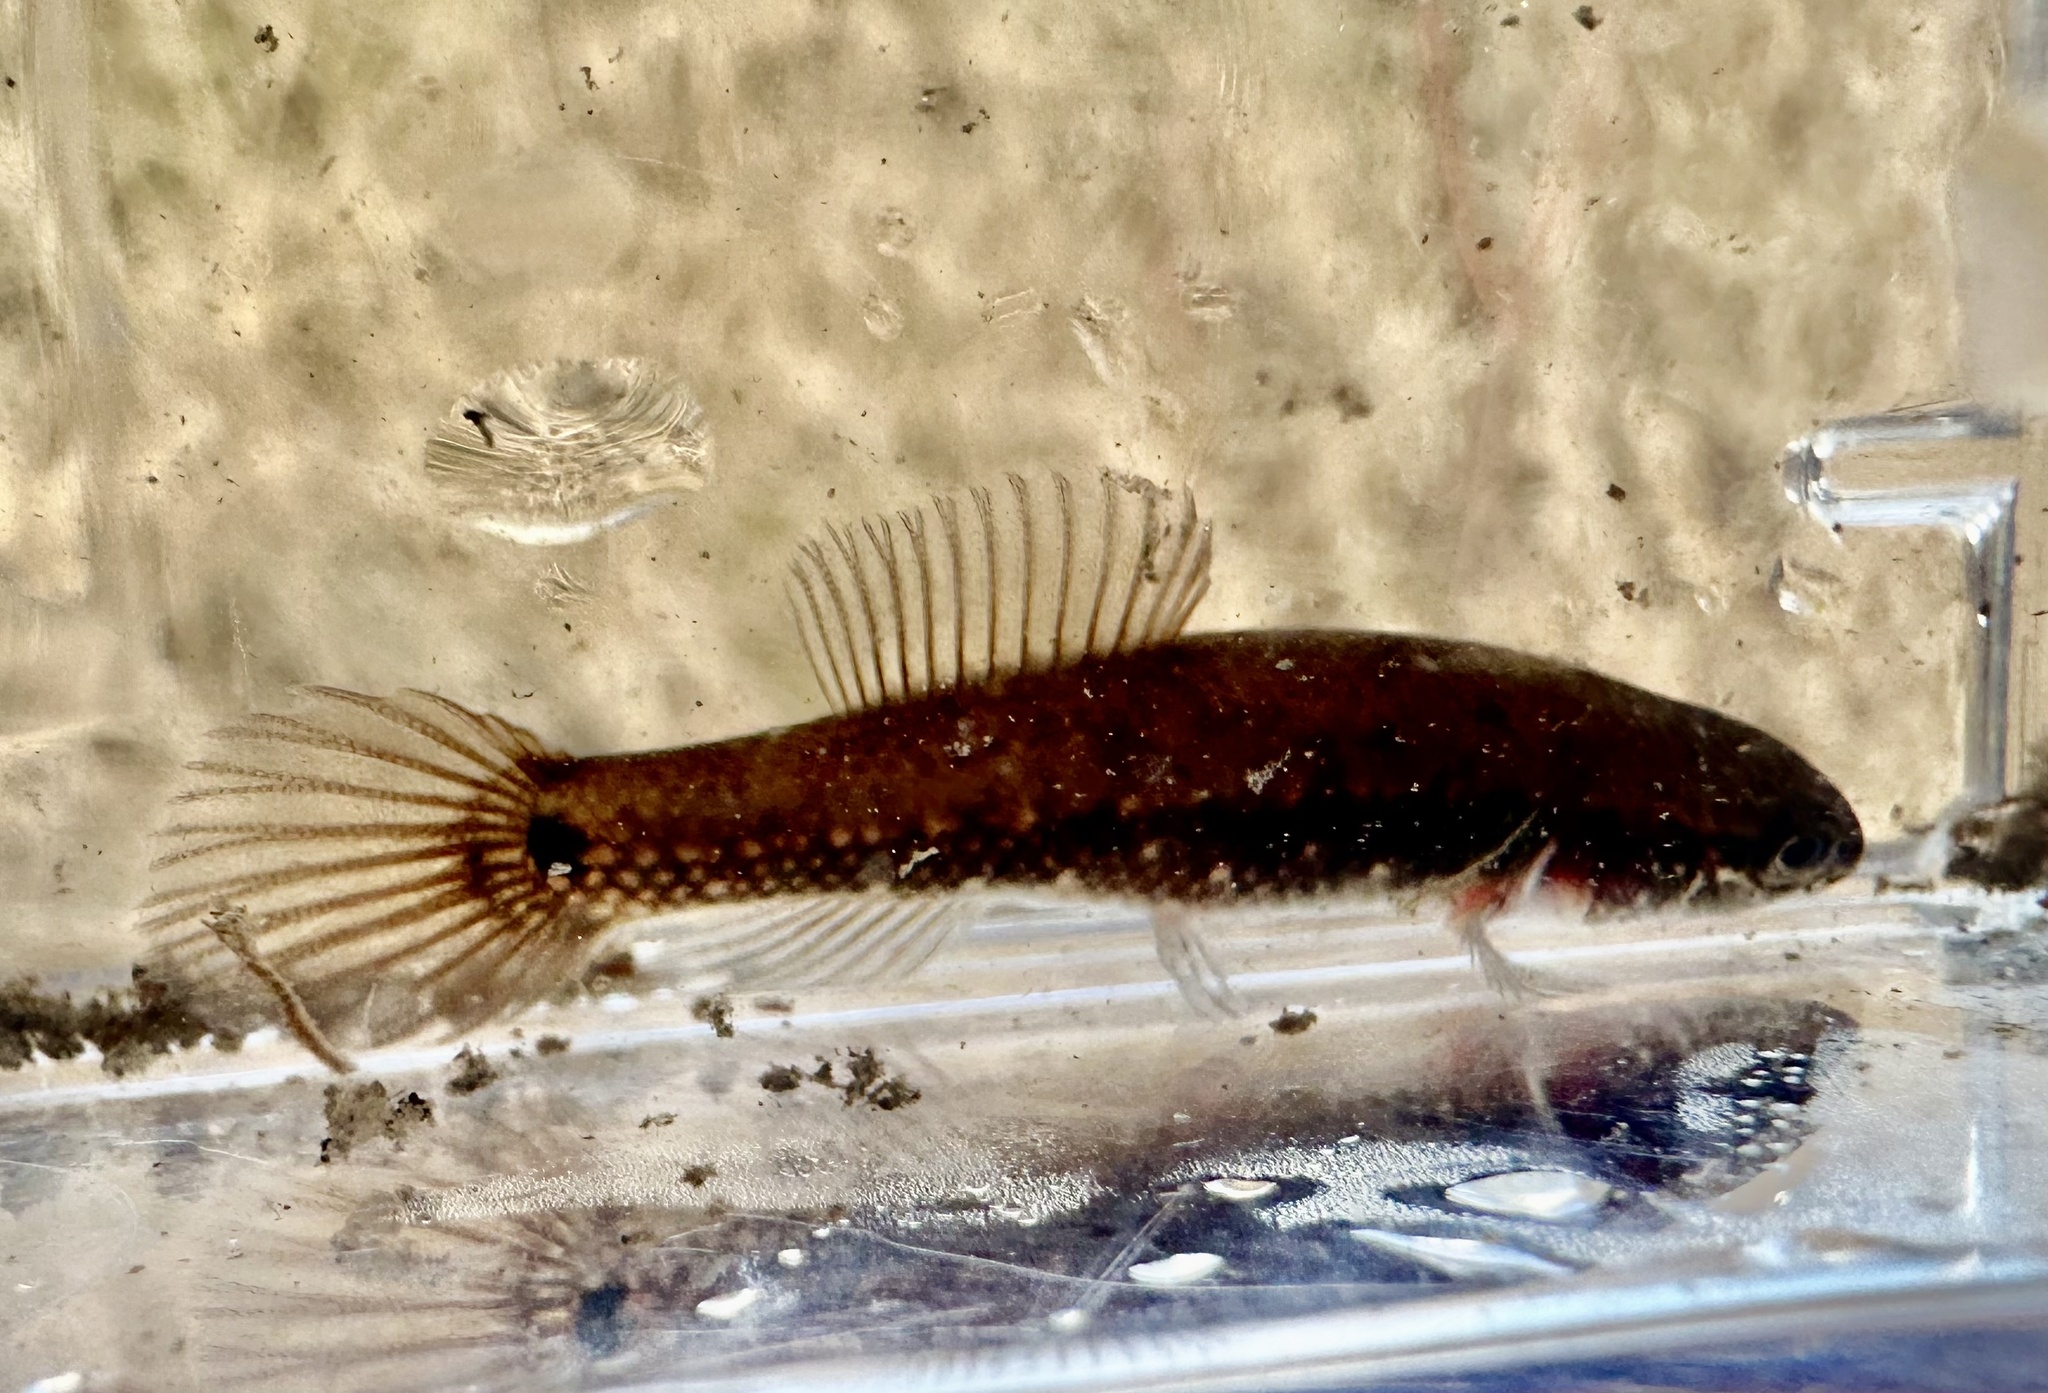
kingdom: Animalia
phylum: Chordata
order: Esociformes
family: Umbridae
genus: Umbra
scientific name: Umbra pygmaea
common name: Eastern mudminnow
